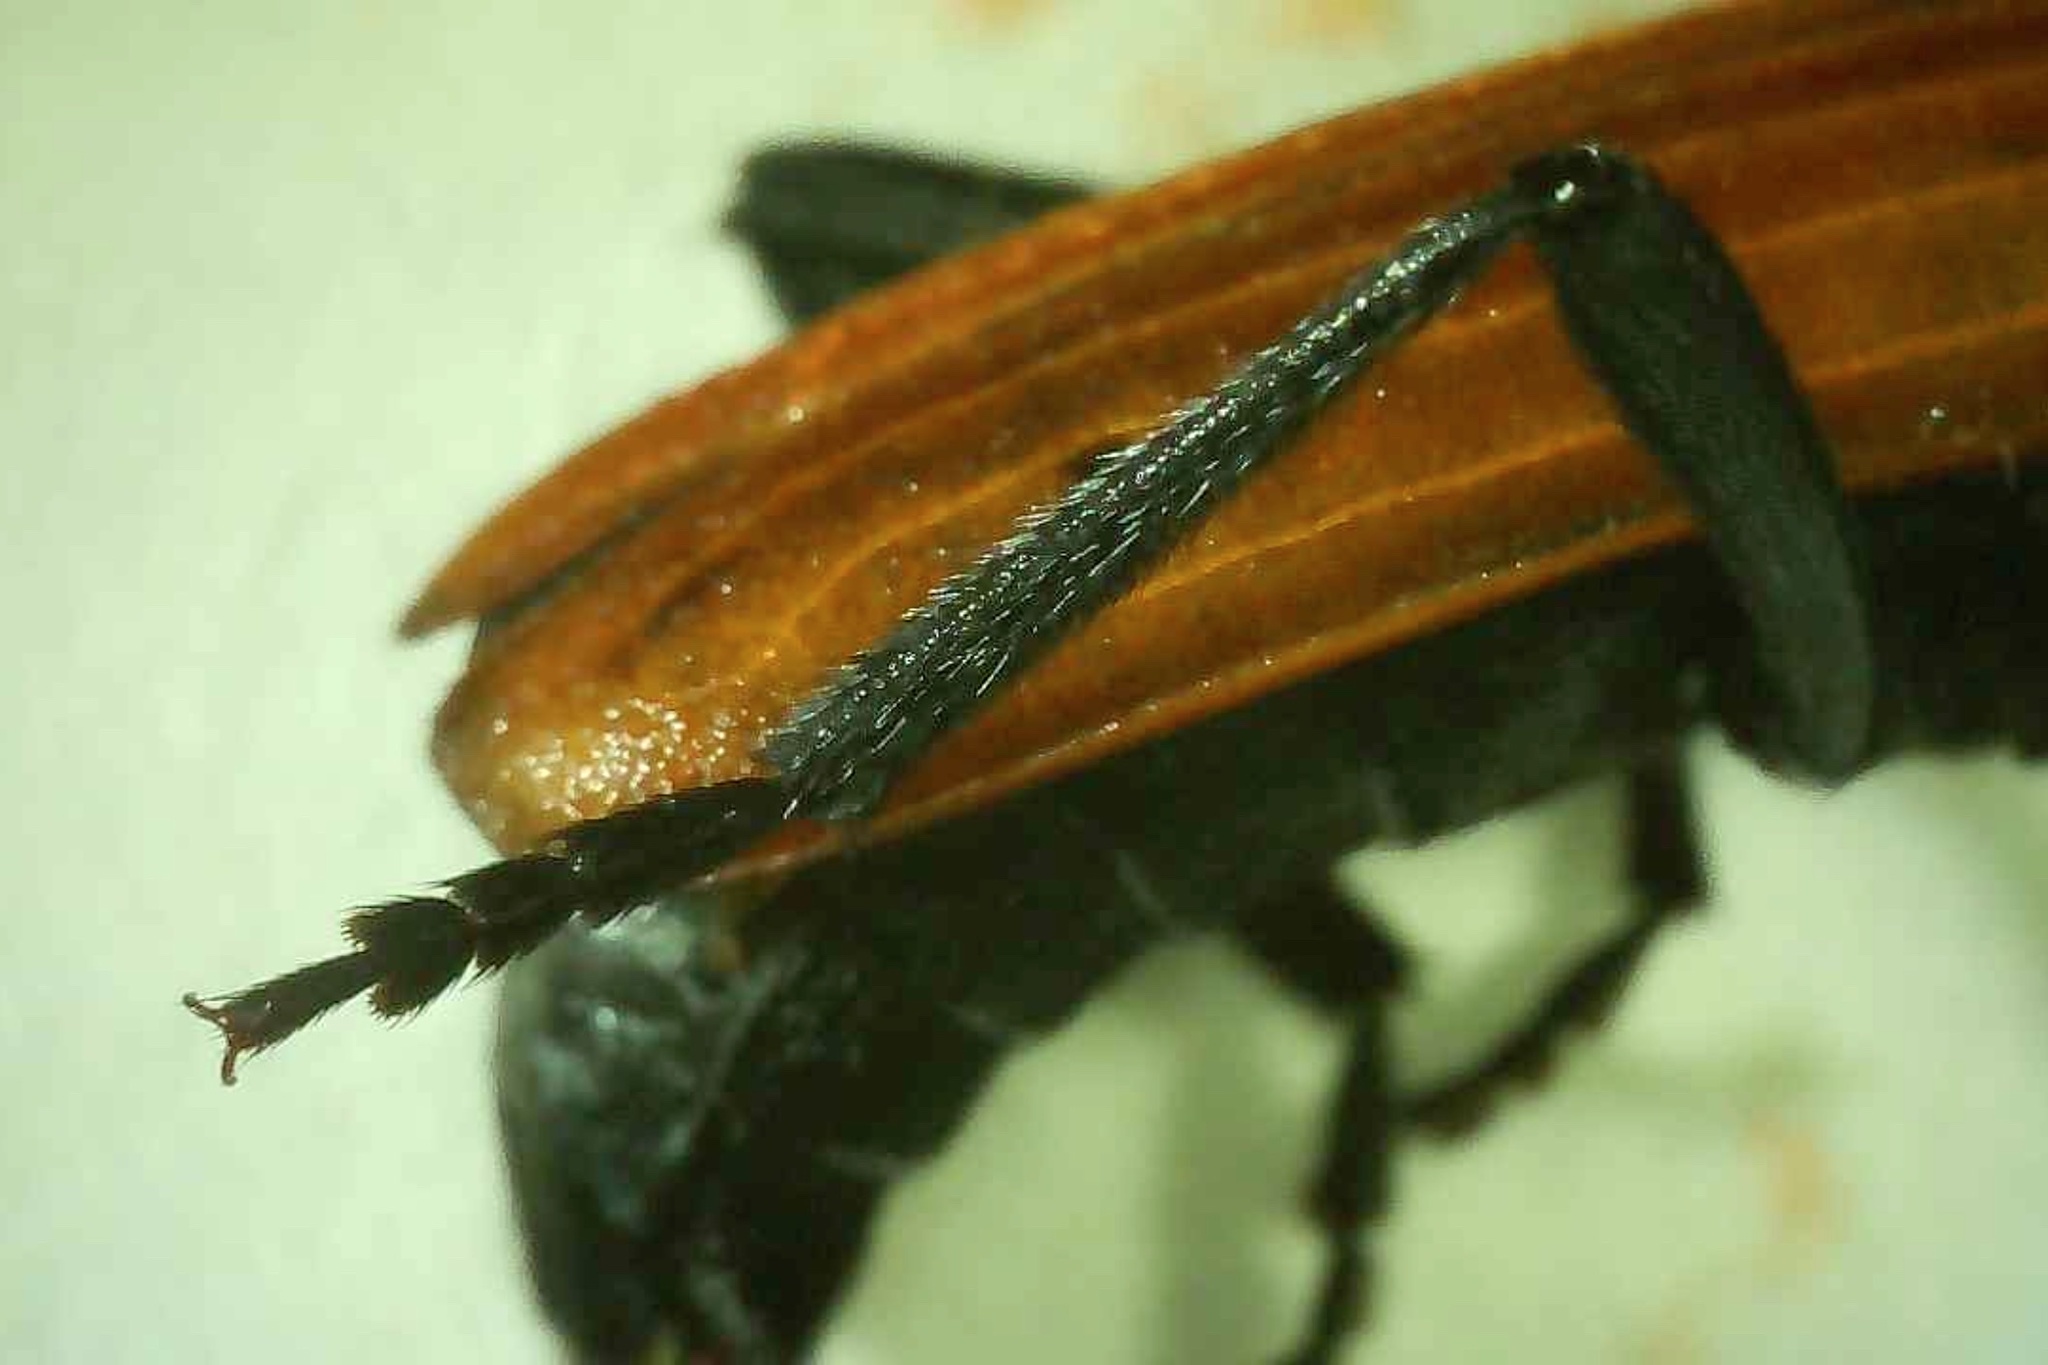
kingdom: Animalia
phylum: Arthropoda
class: Insecta
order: Coleoptera
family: Cerambycidae
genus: Tragidion
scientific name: Tragidion coquus
